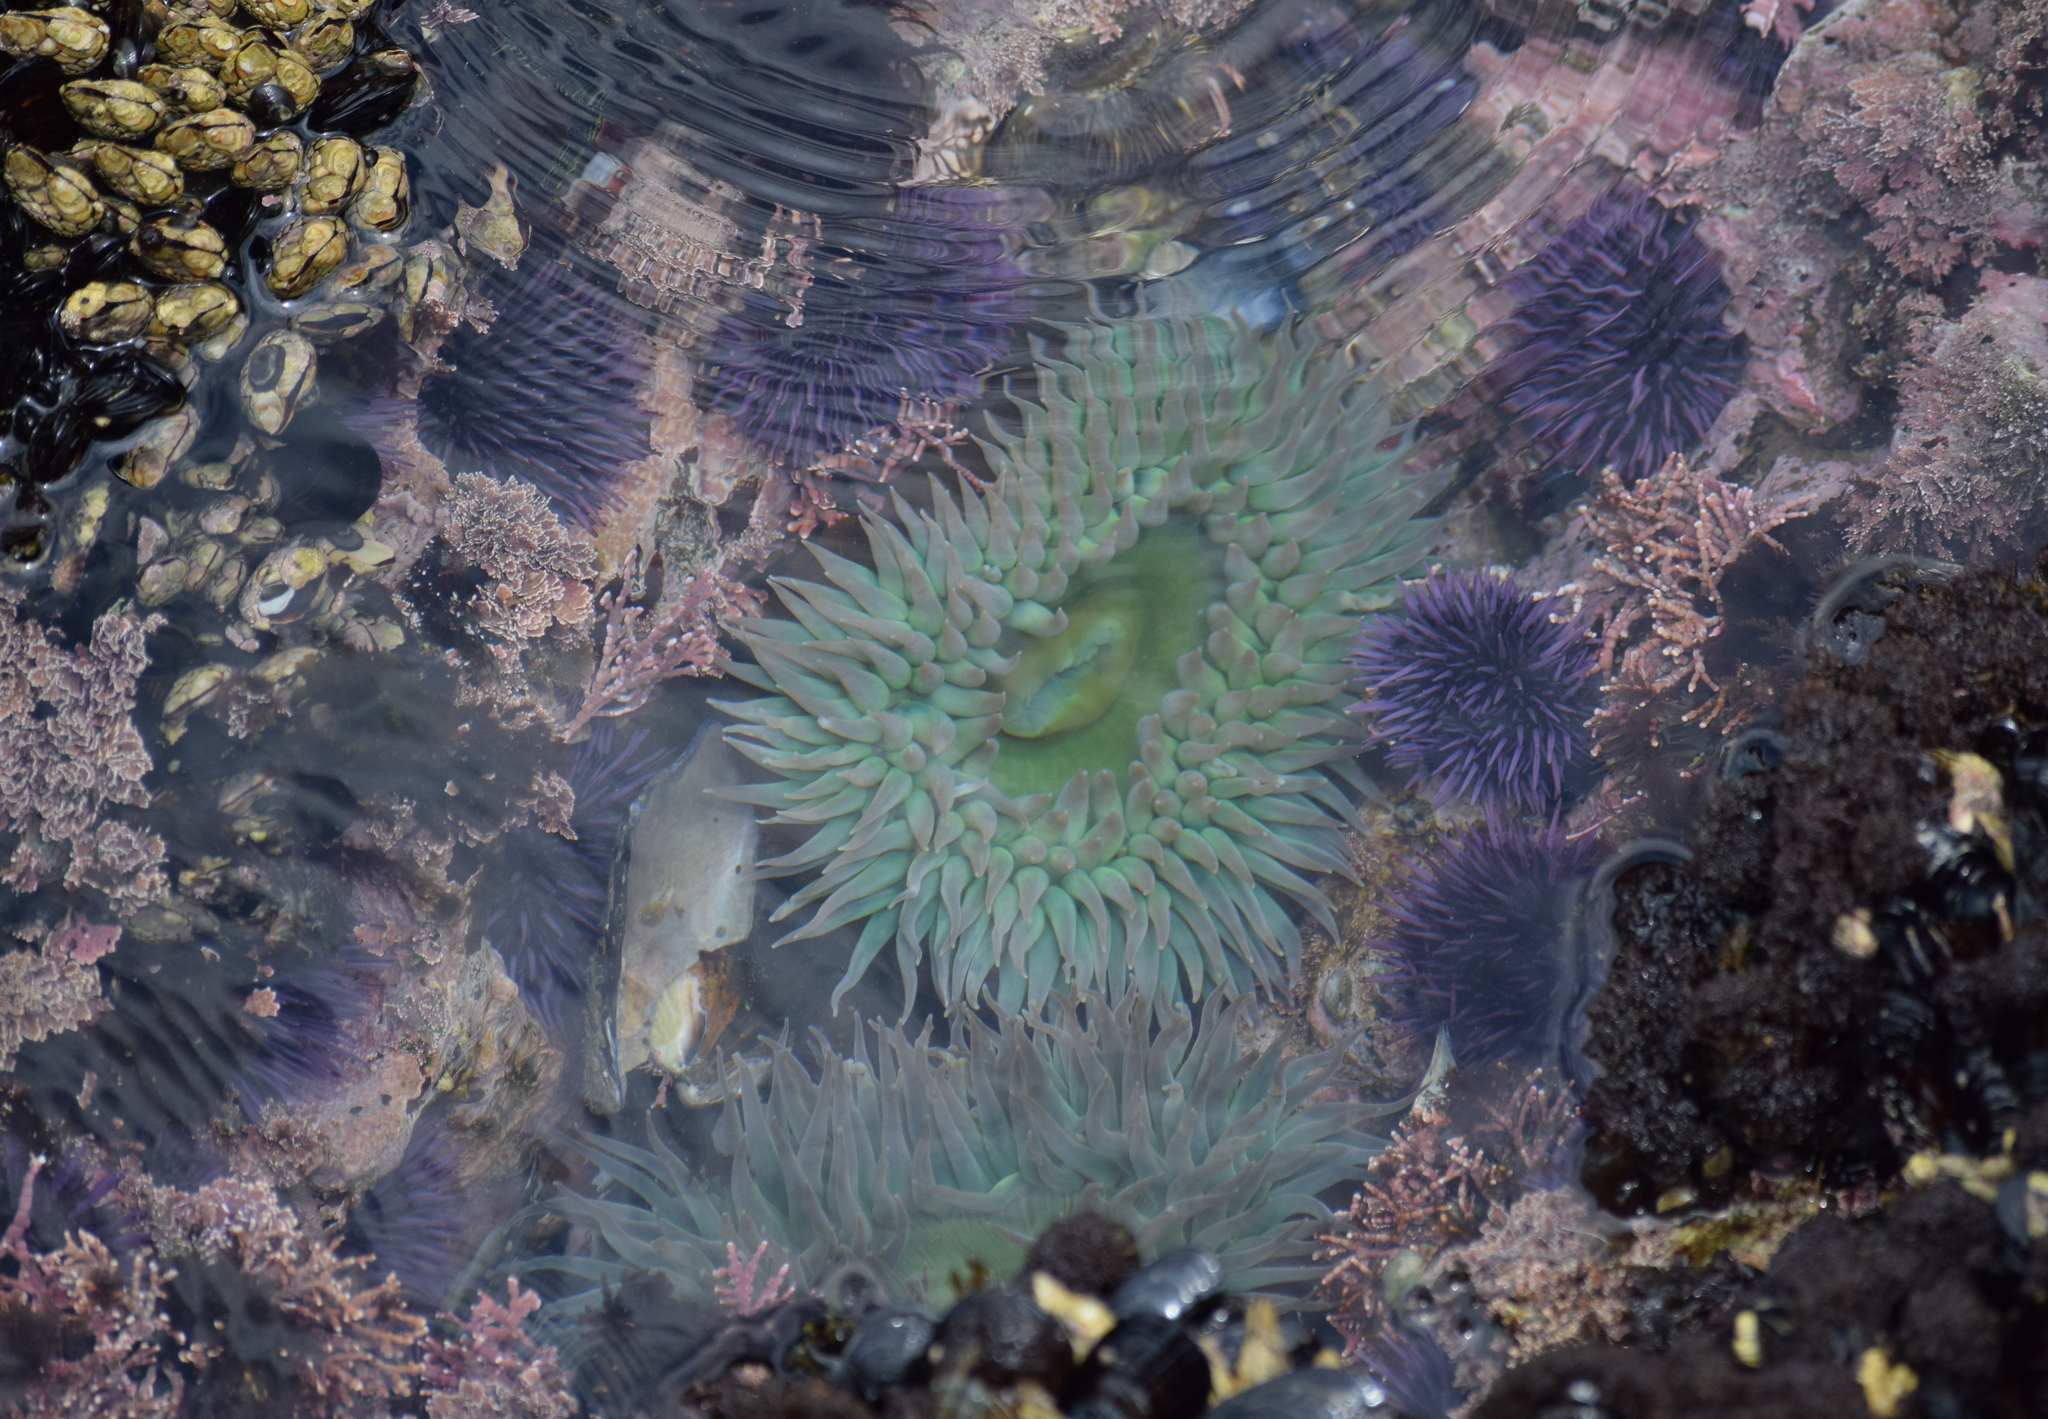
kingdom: Animalia
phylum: Cnidaria
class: Anthozoa
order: Actiniaria
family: Actiniidae
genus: Anthopleura
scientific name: Anthopleura xanthogrammica
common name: Giant green anemone
